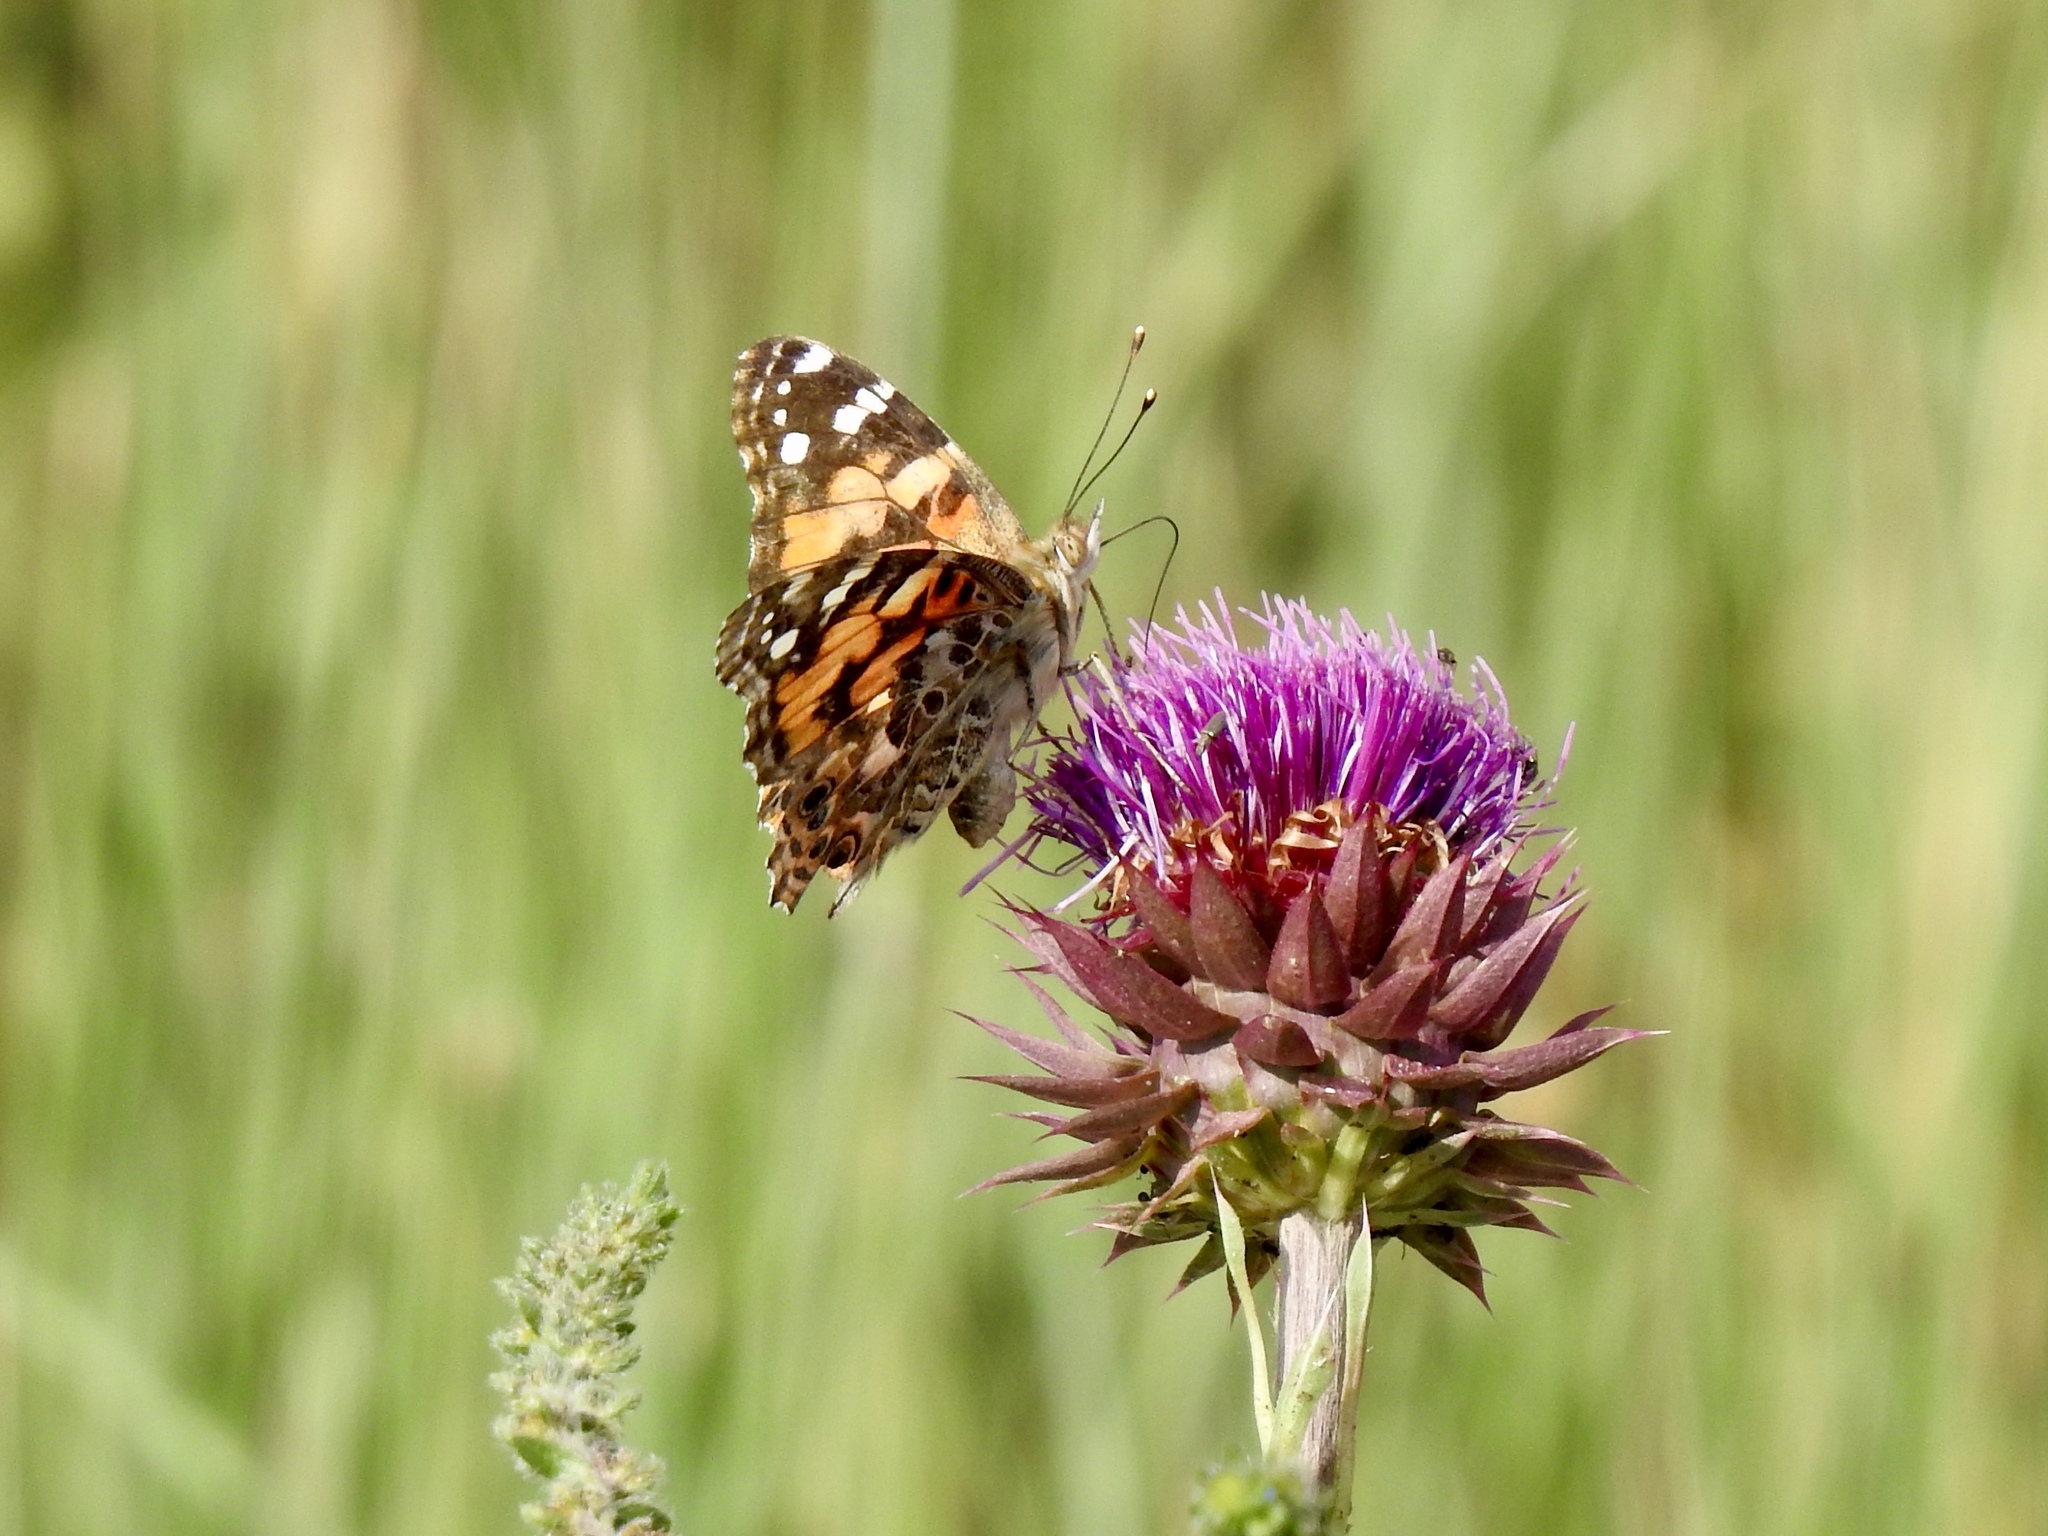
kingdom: Animalia
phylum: Arthropoda
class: Insecta
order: Lepidoptera
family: Nymphalidae
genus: Vanessa
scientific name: Vanessa cardui
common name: Painted lady
